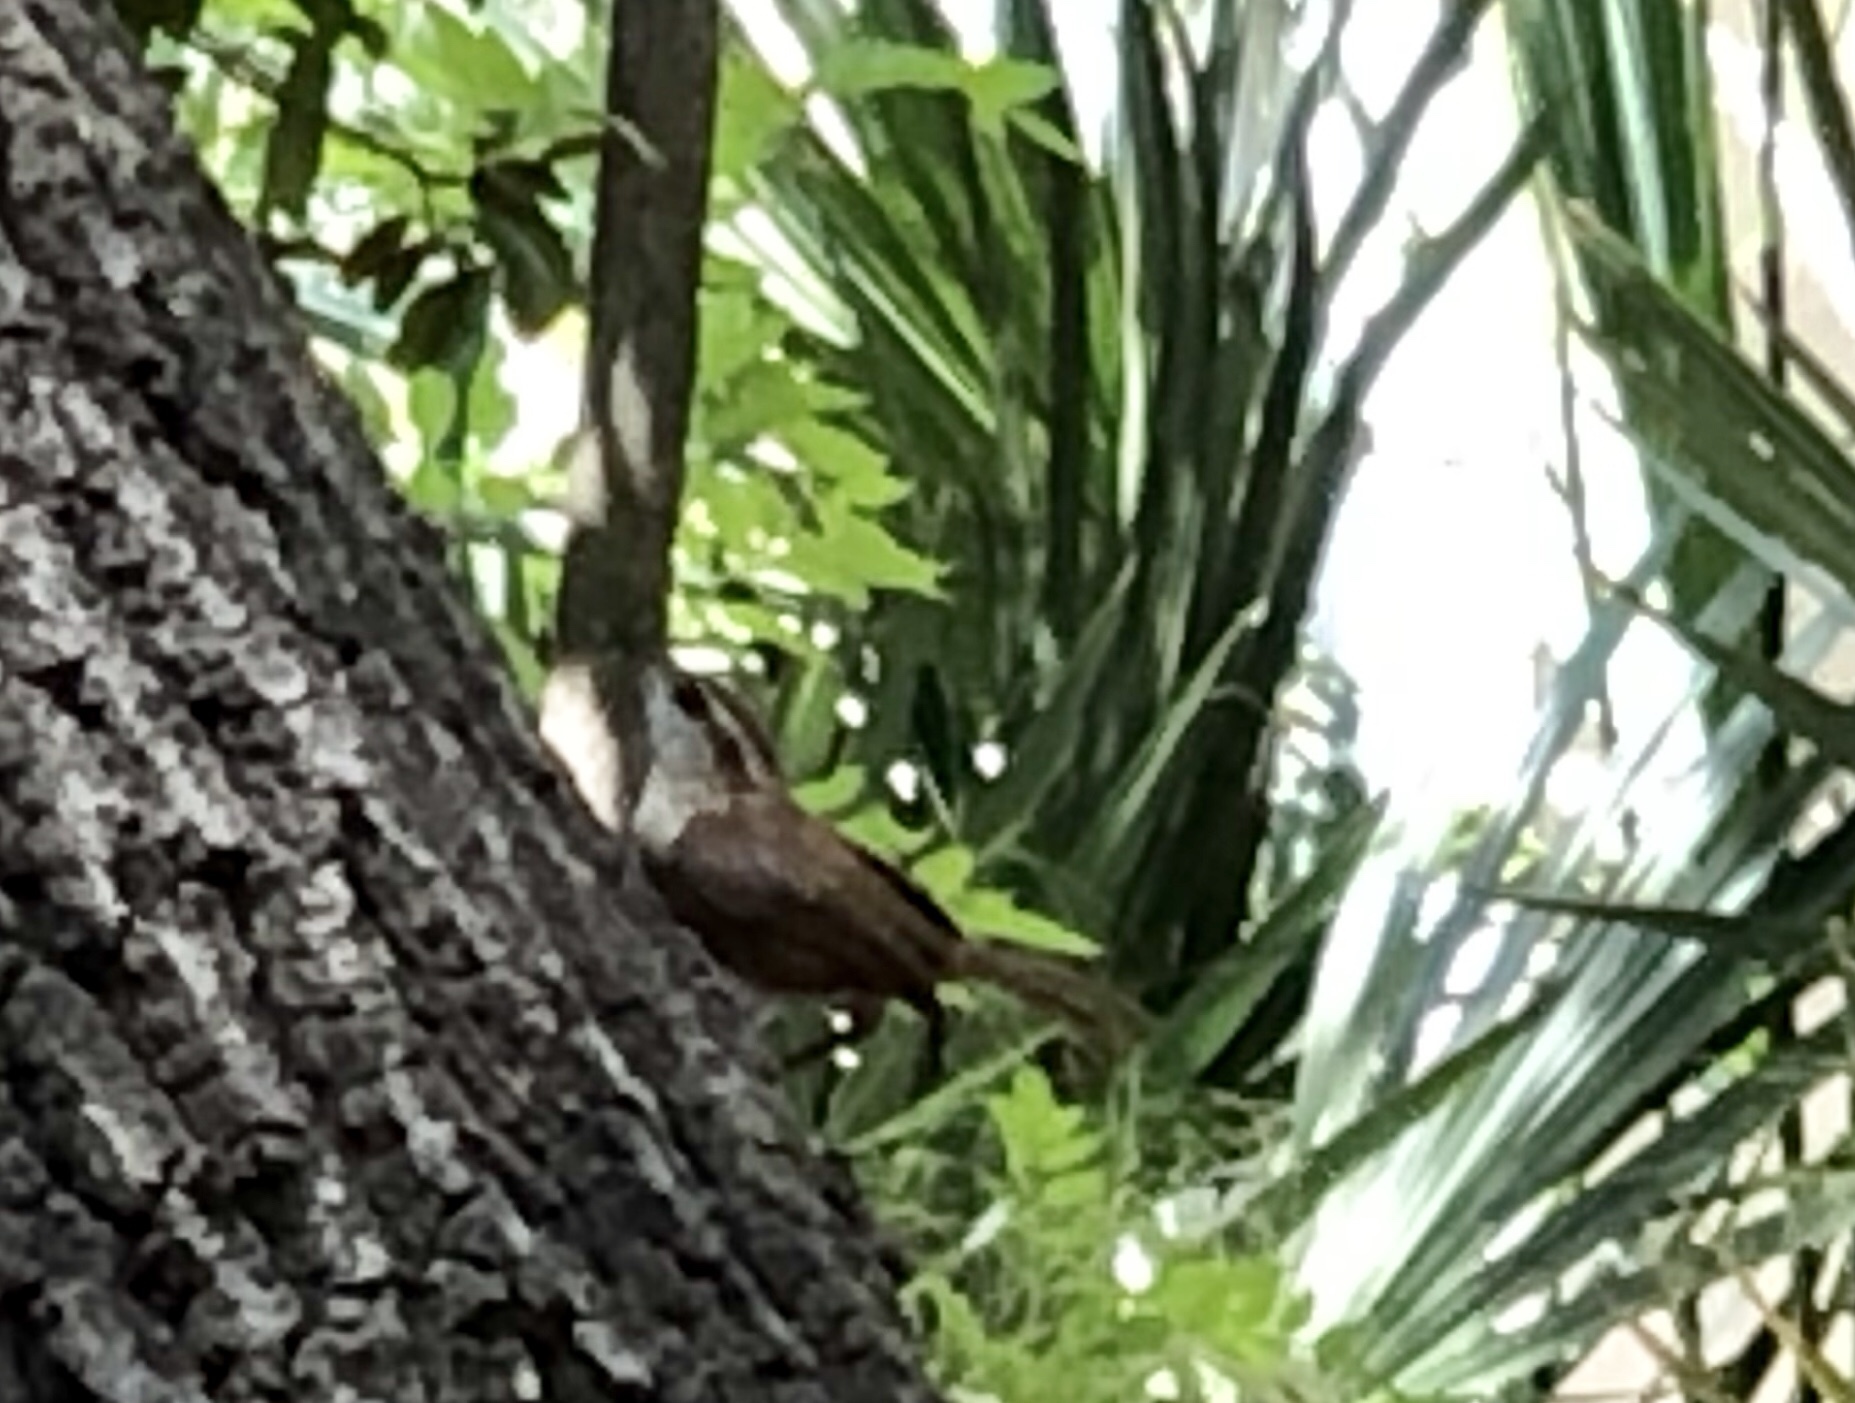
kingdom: Animalia
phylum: Chordata
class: Aves
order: Passeriformes
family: Troglodytidae
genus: Thryothorus
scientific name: Thryothorus ludovicianus
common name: Carolina wren
